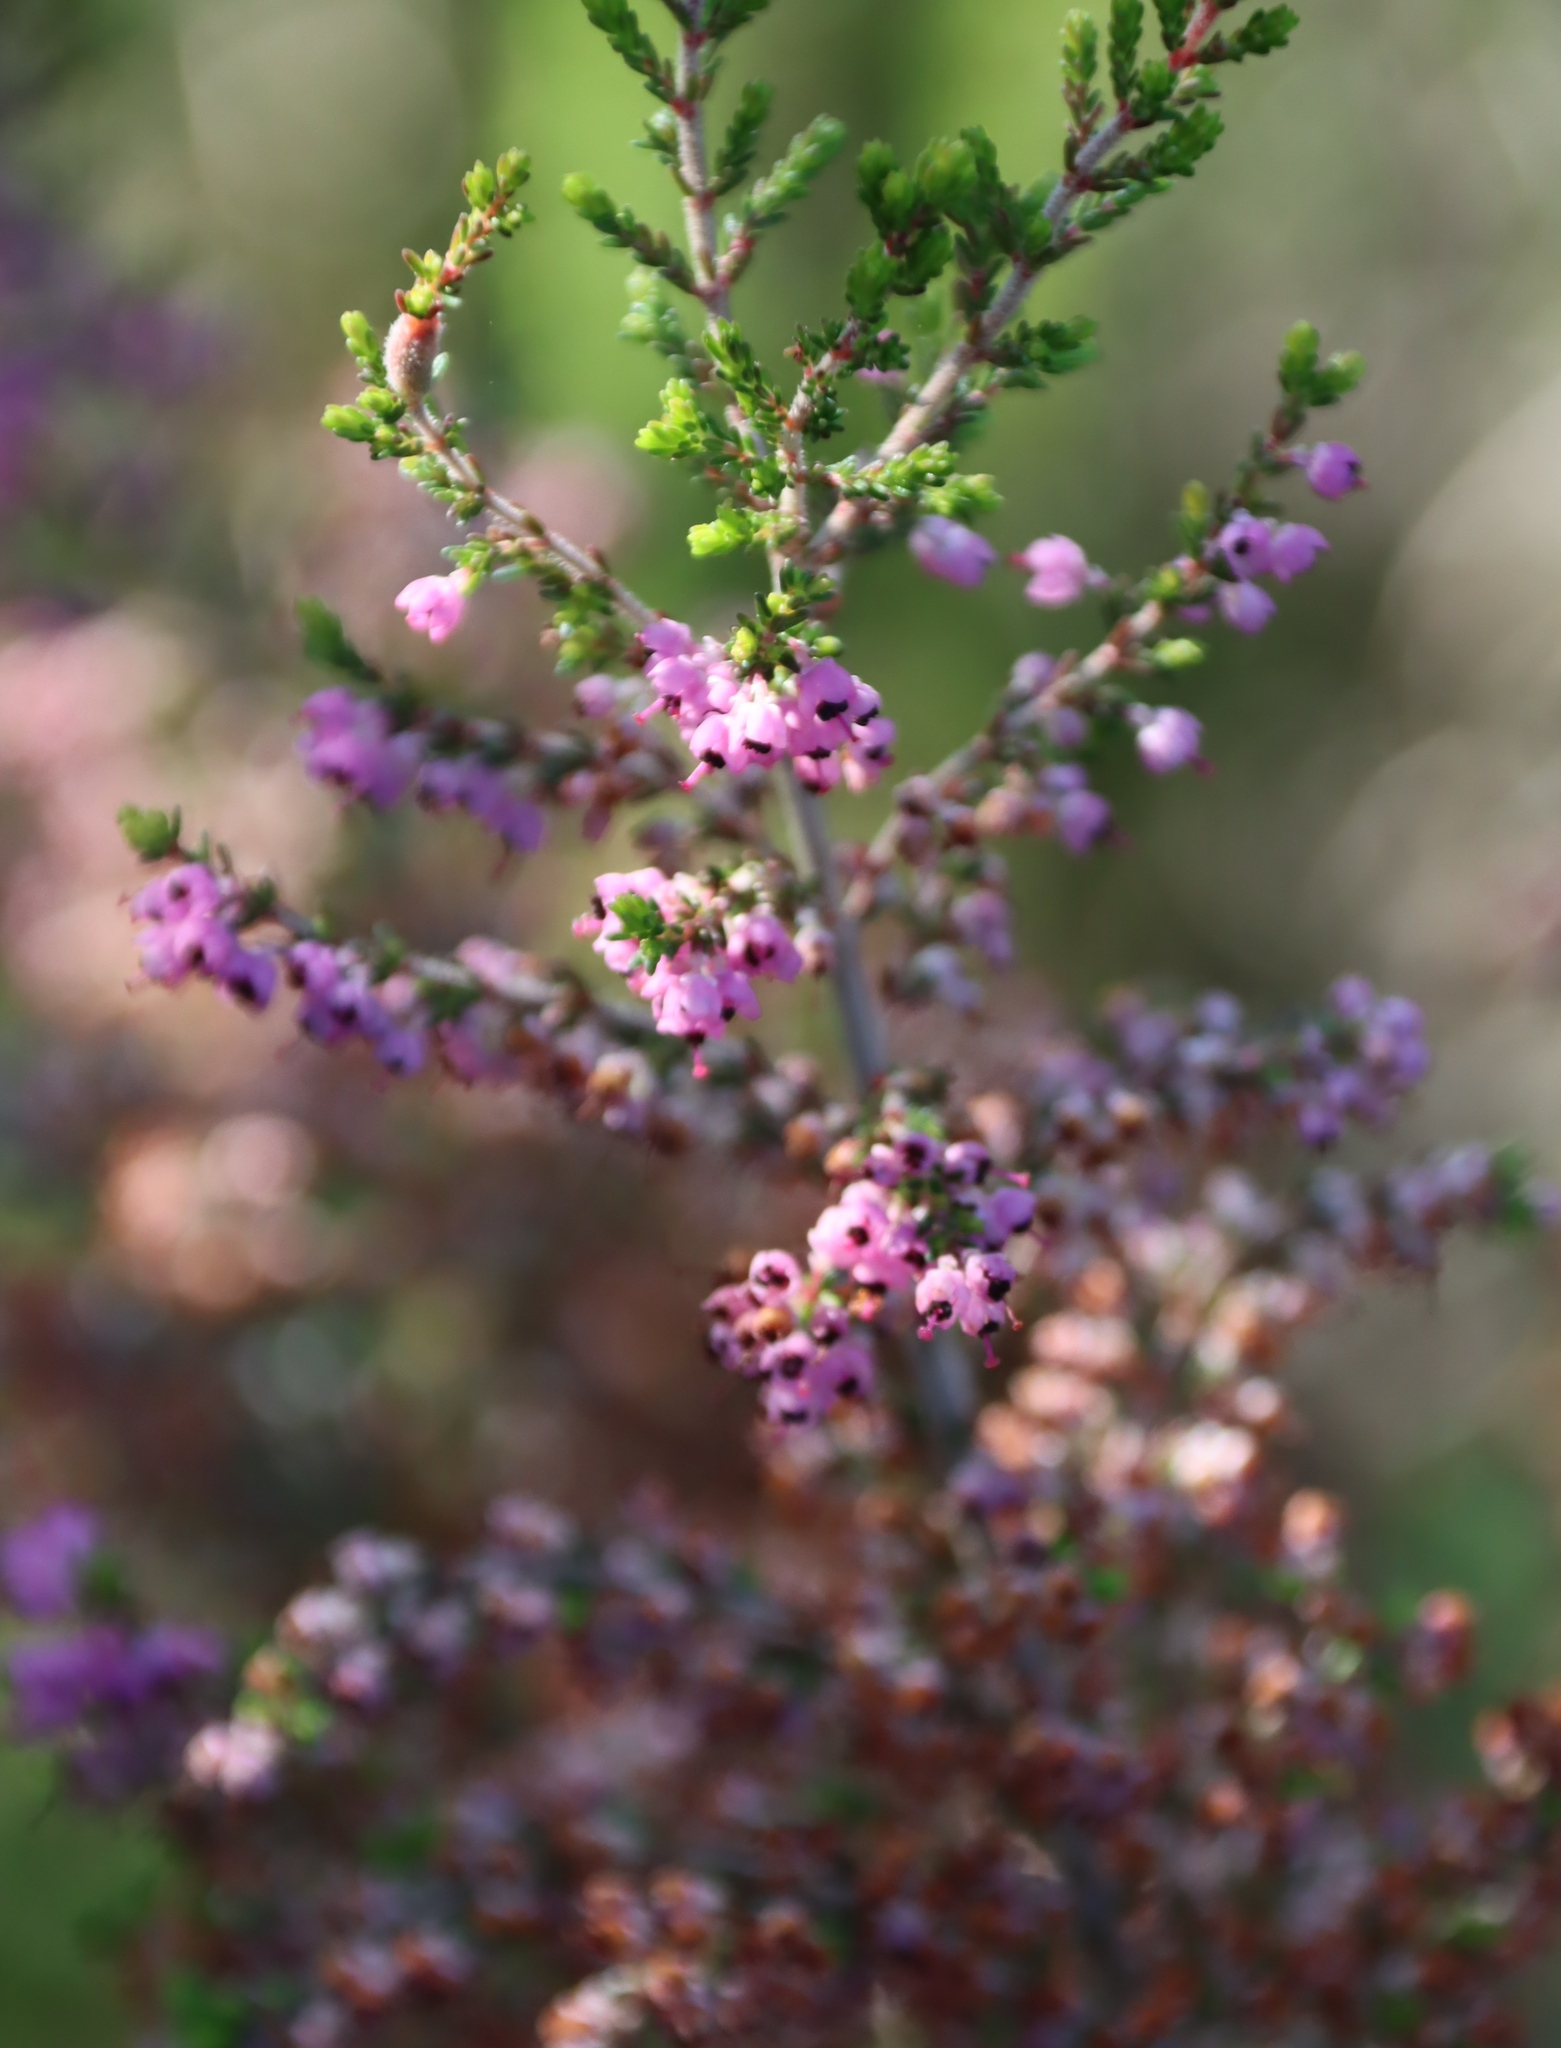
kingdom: Plantae
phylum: Tracheophyta
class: Magnoliopsida
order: Ericales
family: Ericaceae
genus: Erica
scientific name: Erica sparsa
